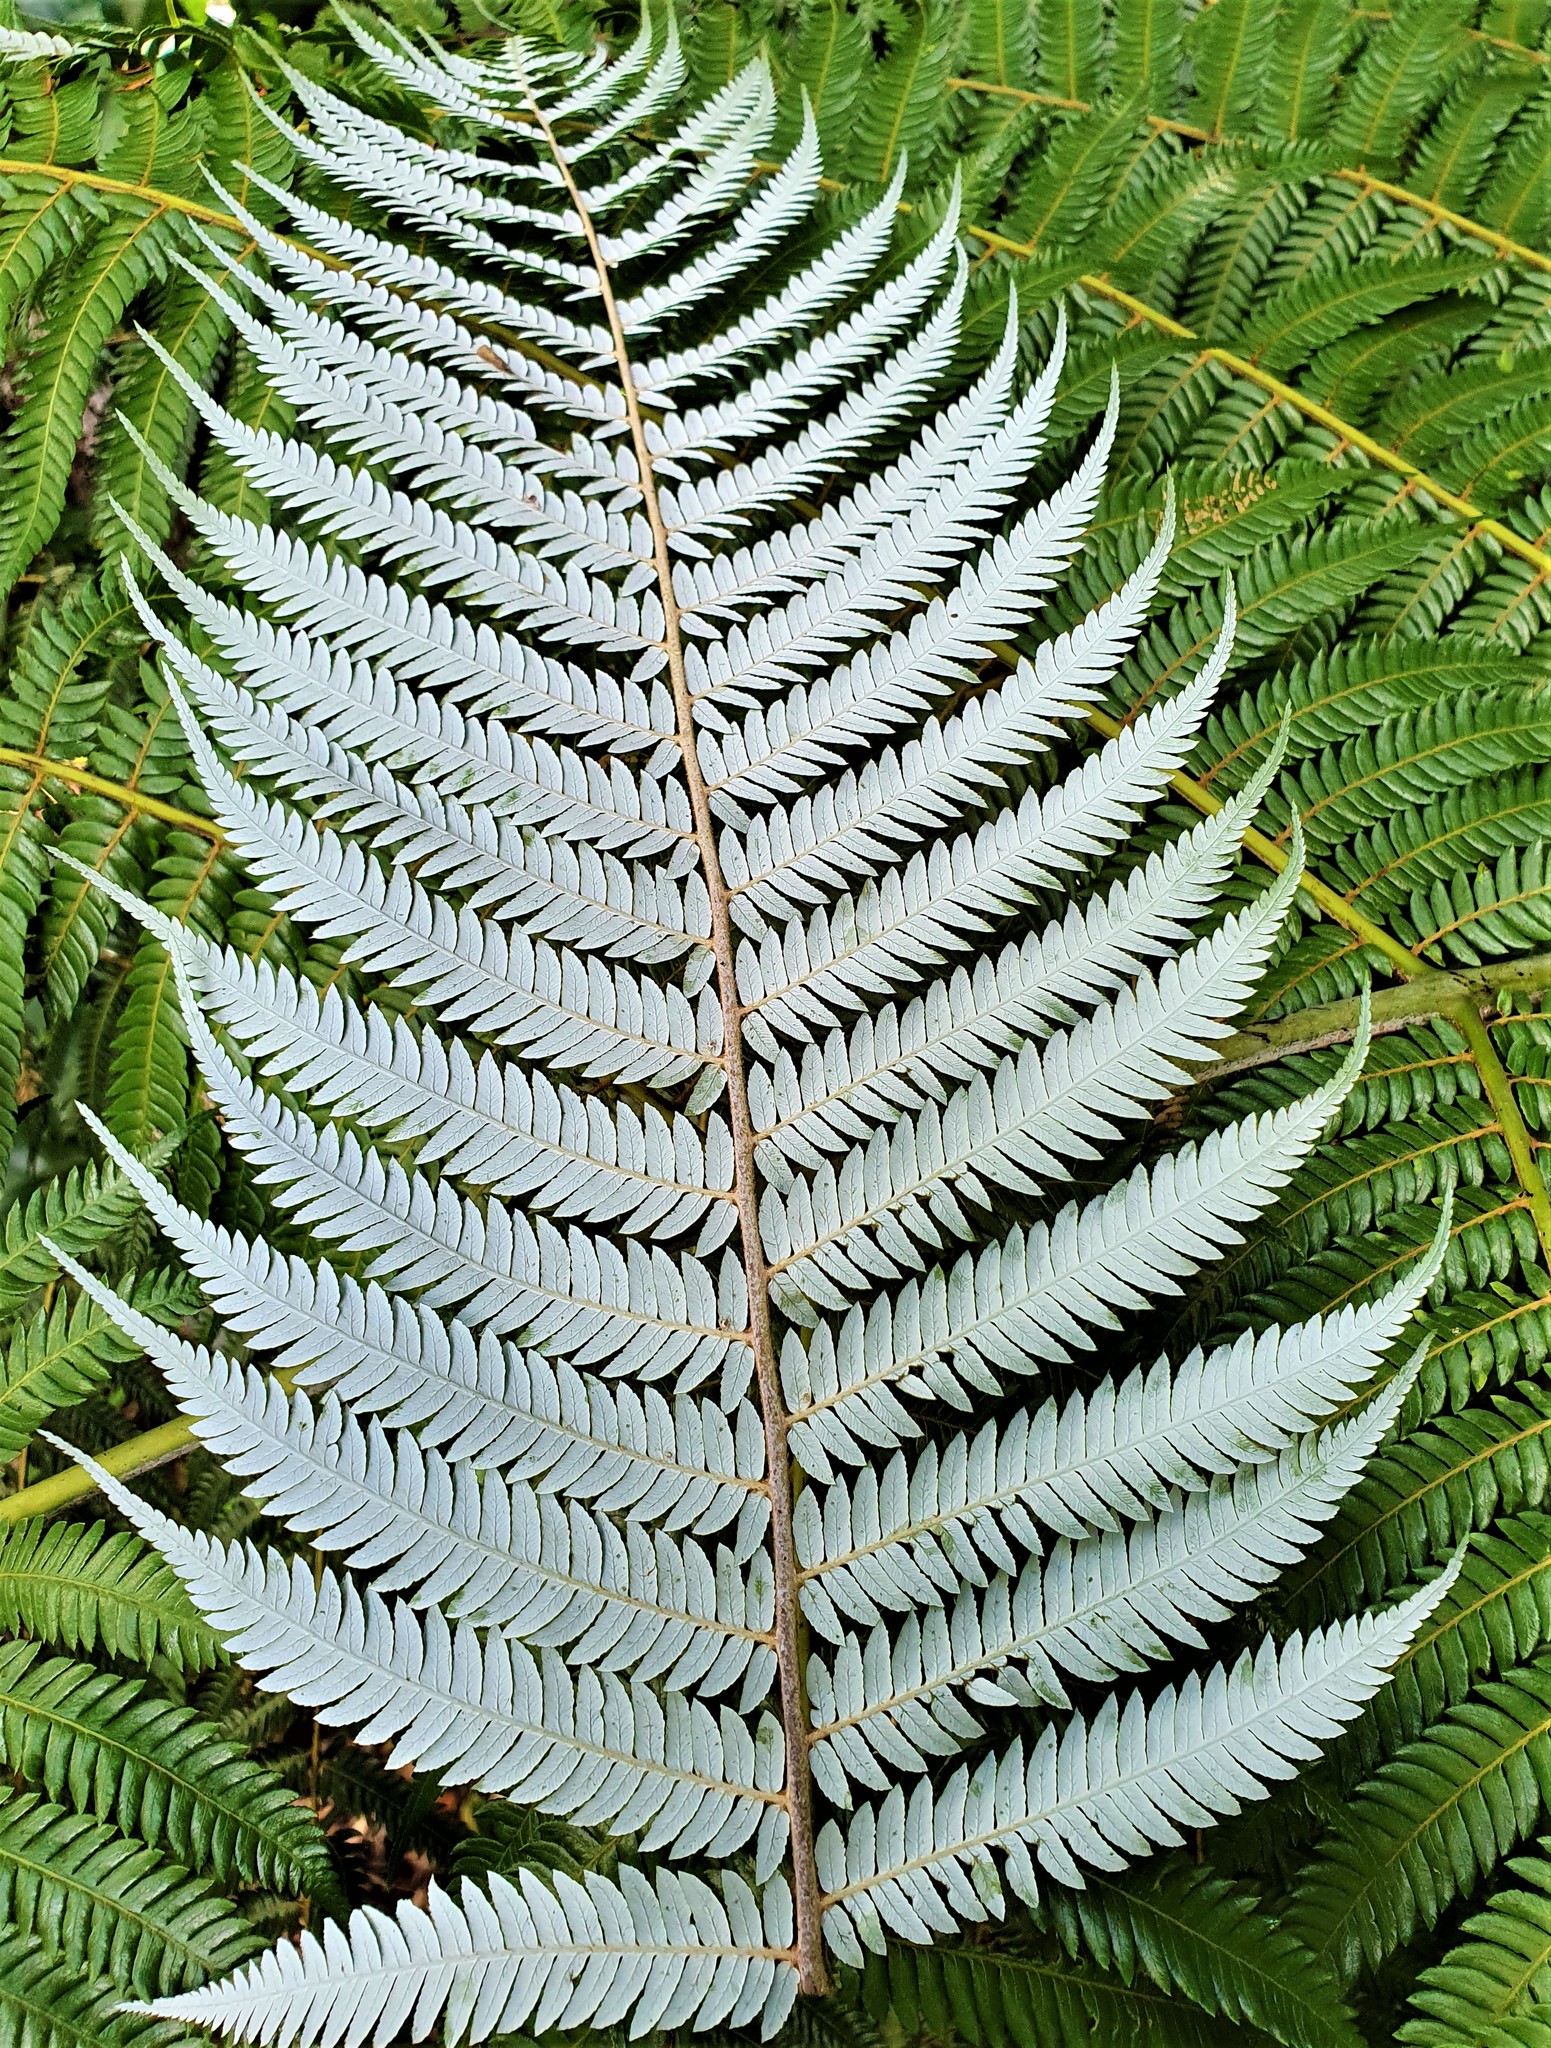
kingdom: Plantae
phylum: Tracheophyta
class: Polypodiopsida
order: Cyatheales
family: Cyatheaceae
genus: Alsophila
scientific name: Alsophila dealbata
